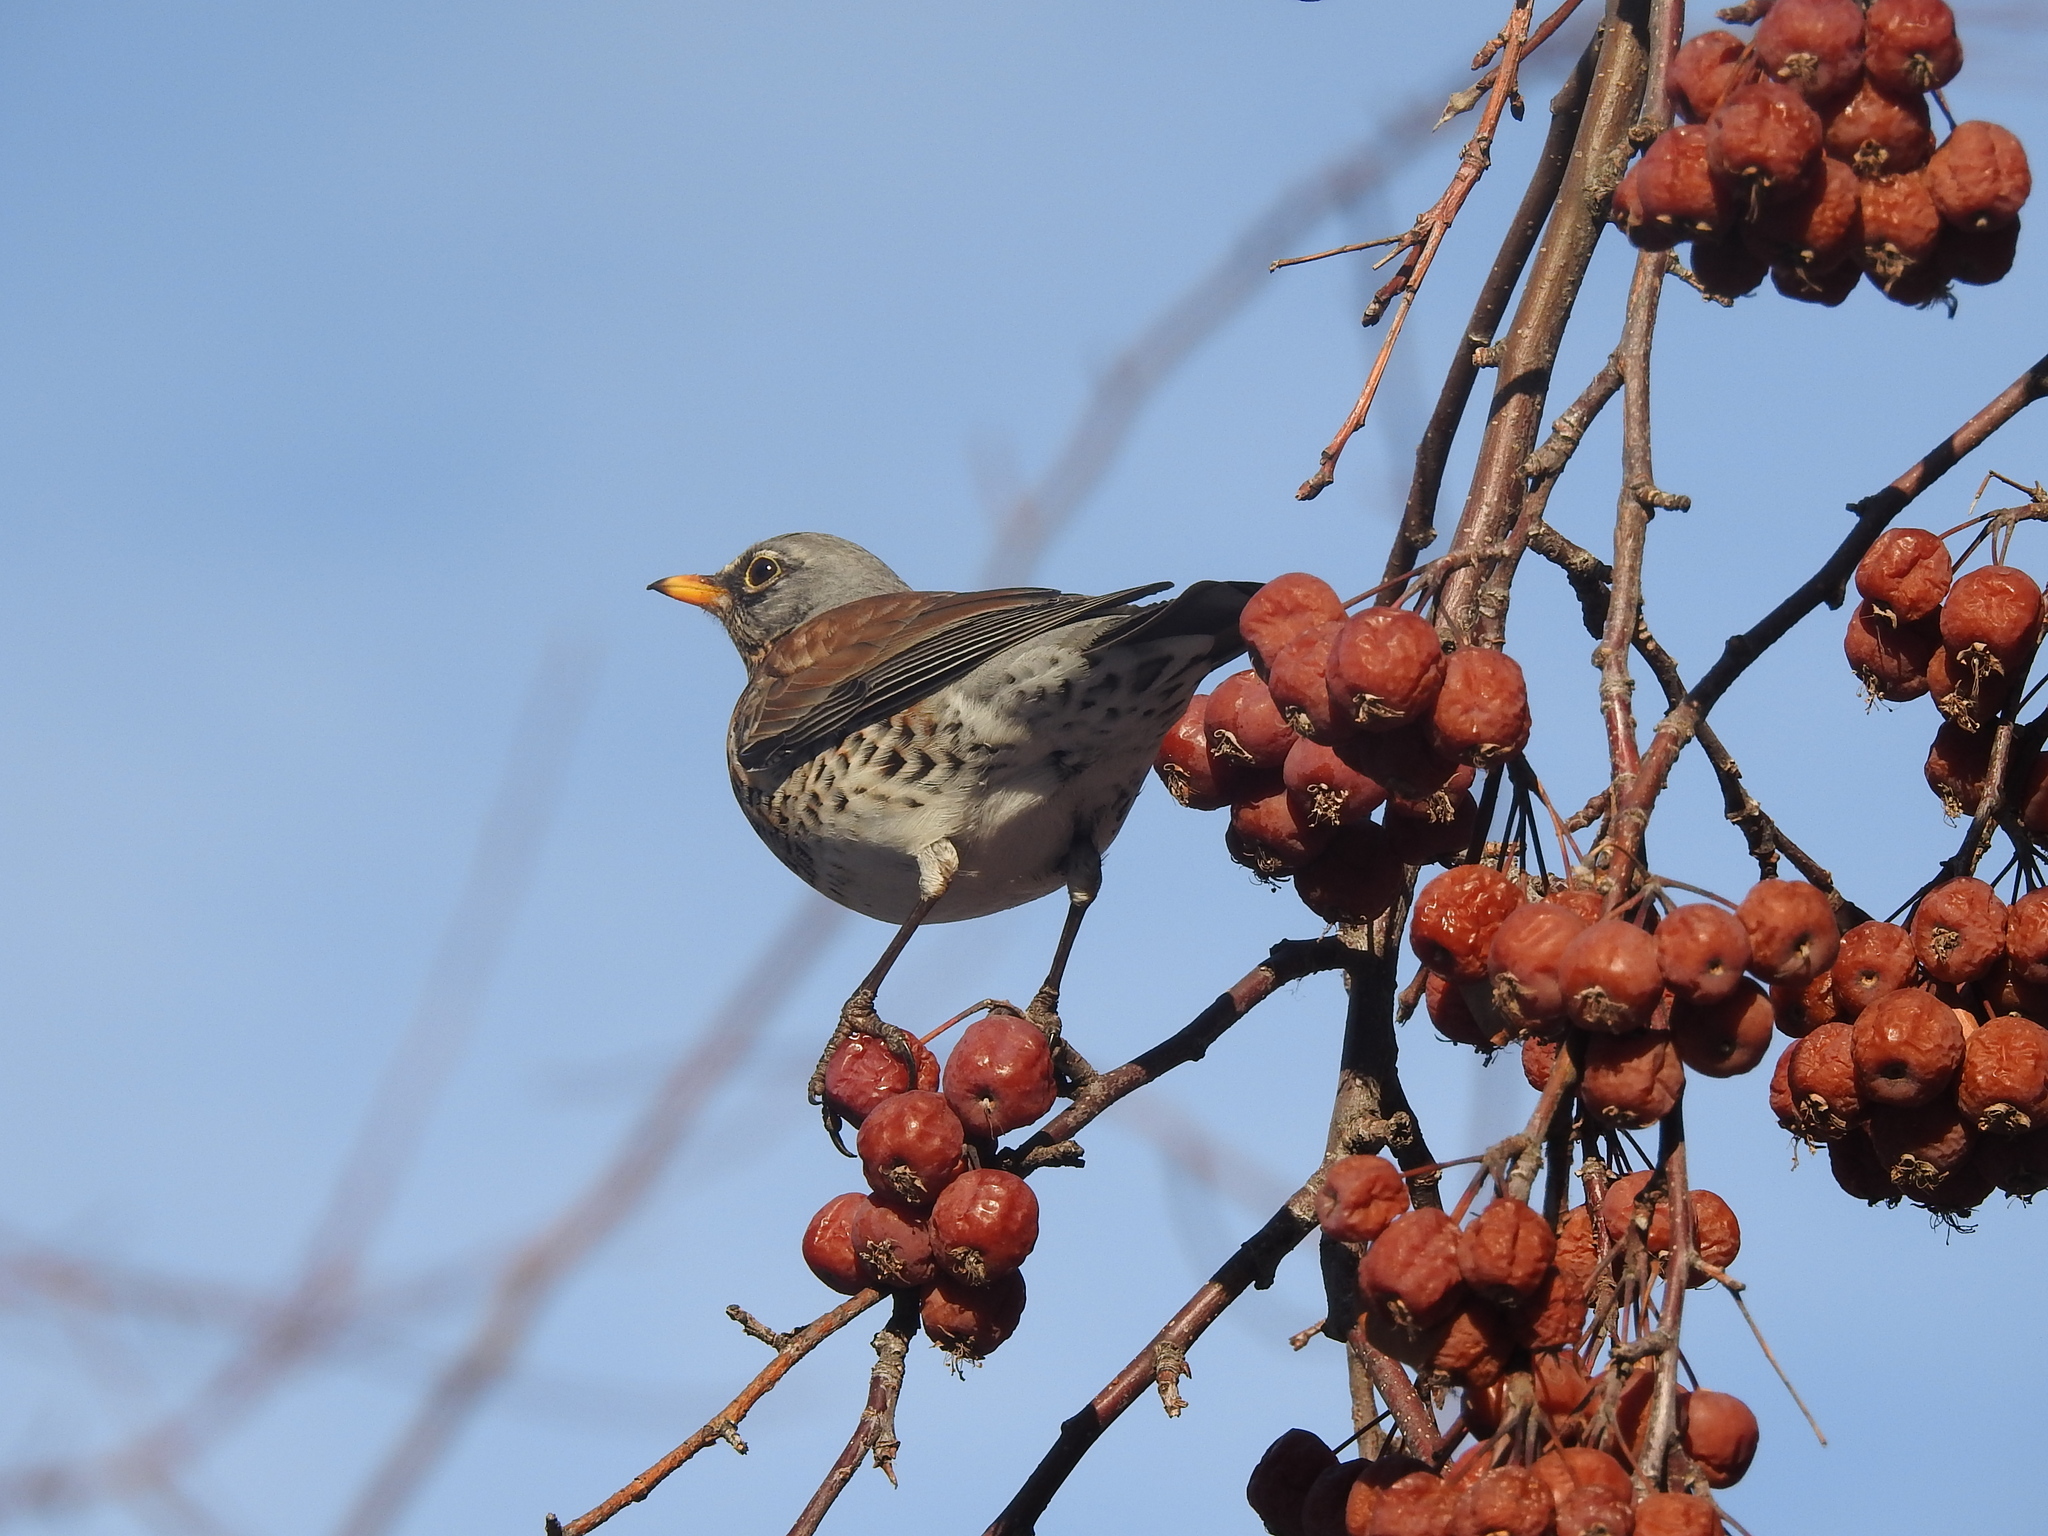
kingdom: Animalia
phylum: Chordata
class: Aves
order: Passeriformes
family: Turdidae
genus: Turdus
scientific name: Turdus pilaris
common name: Fieldfare
